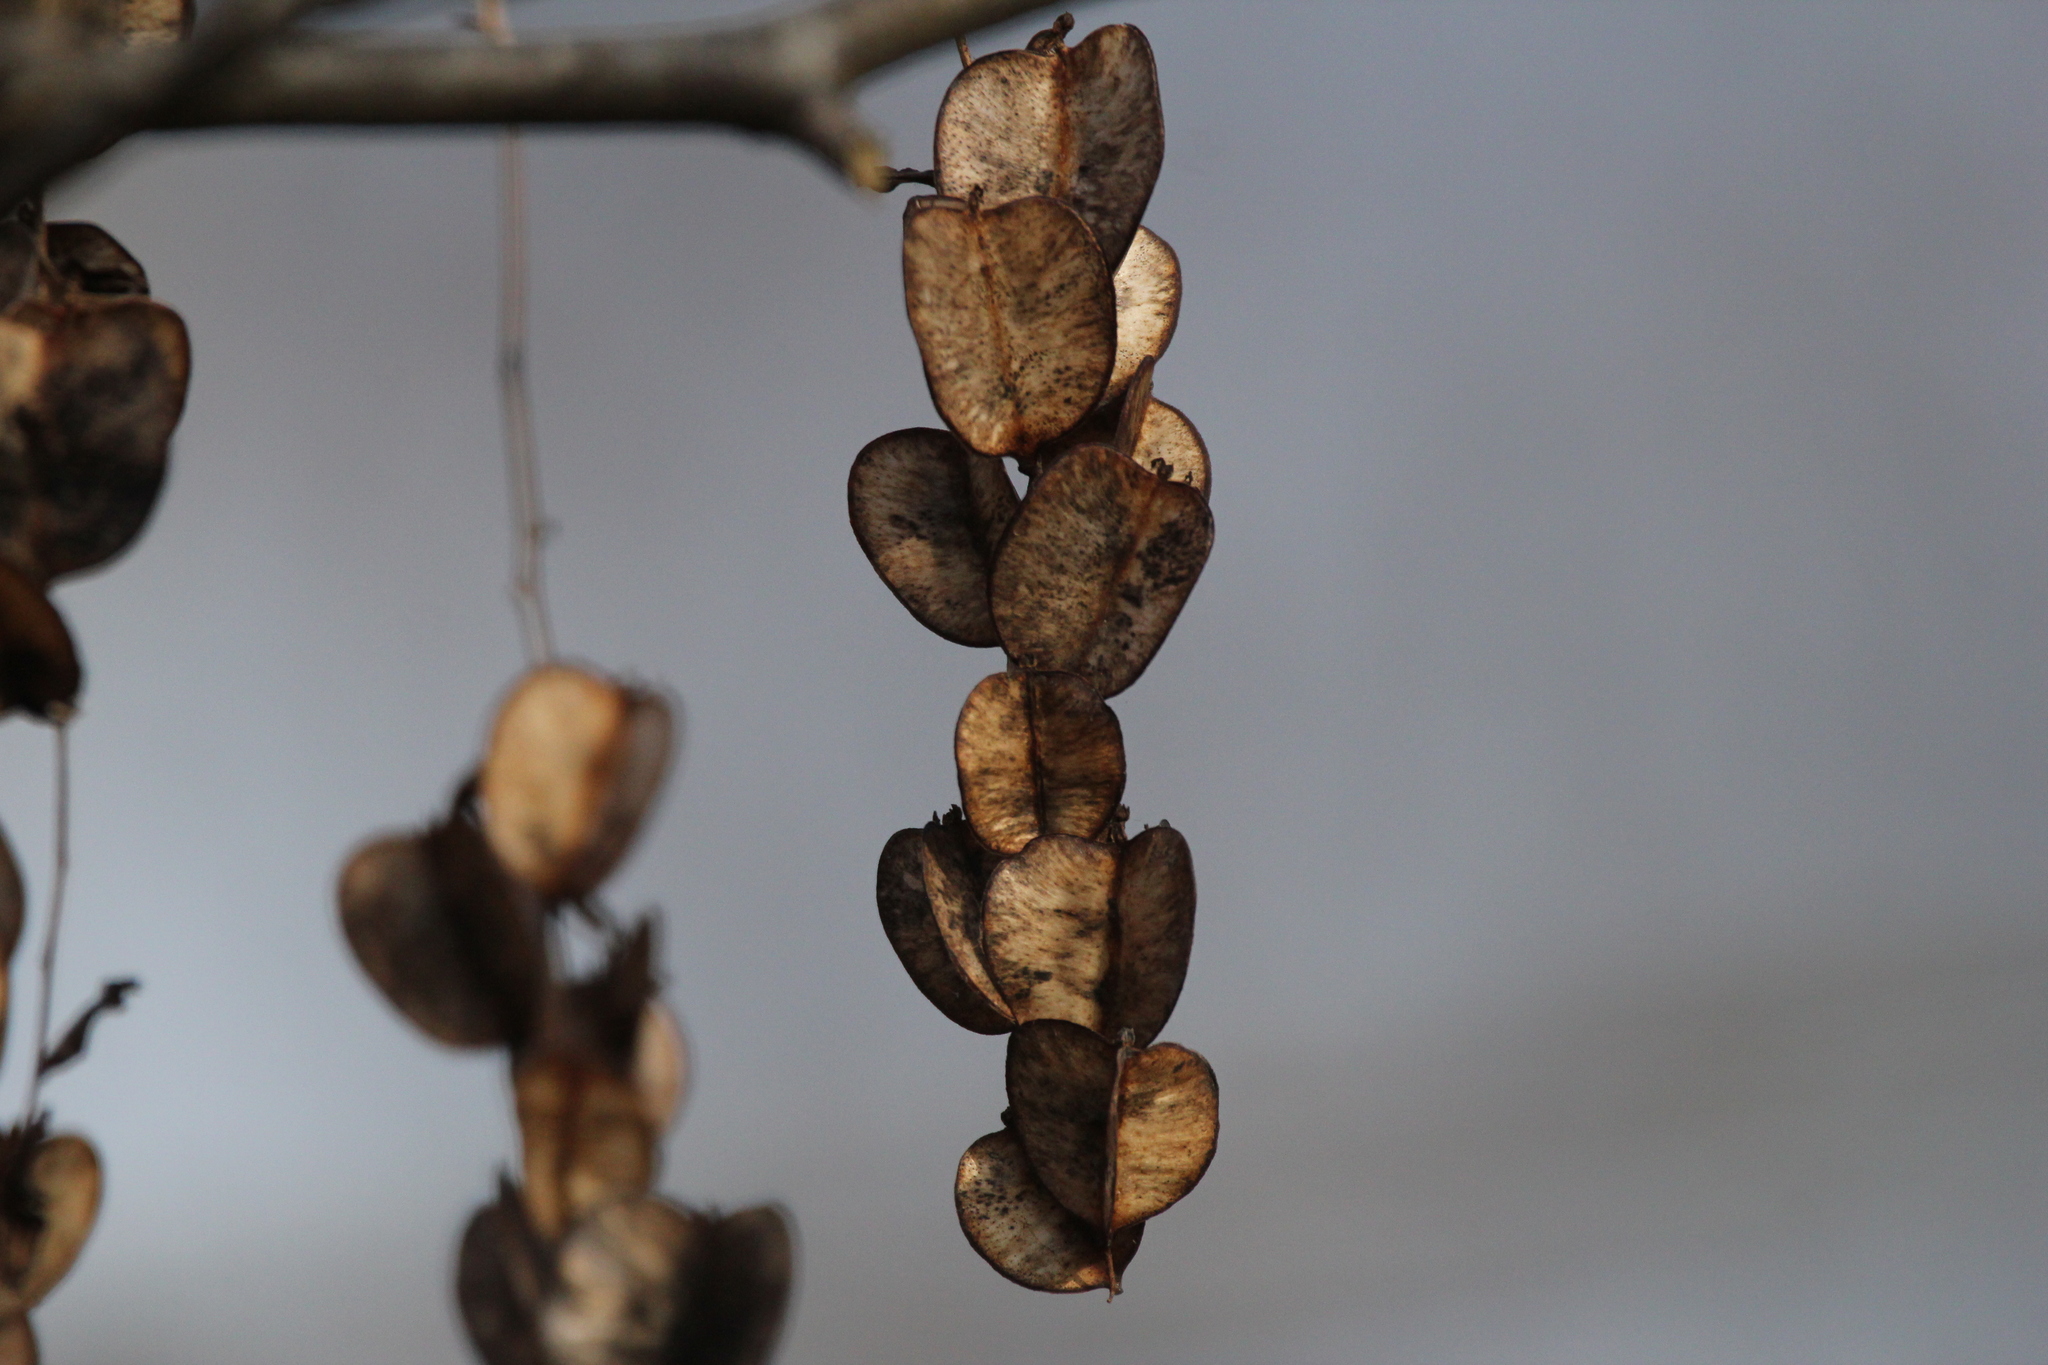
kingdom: Plantae
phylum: Tracheophyta
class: Liliopsida
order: Dioscoreales
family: Dioscoreaceae
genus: Dioscorea
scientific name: Dioscorea villosa
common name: Wild yam
